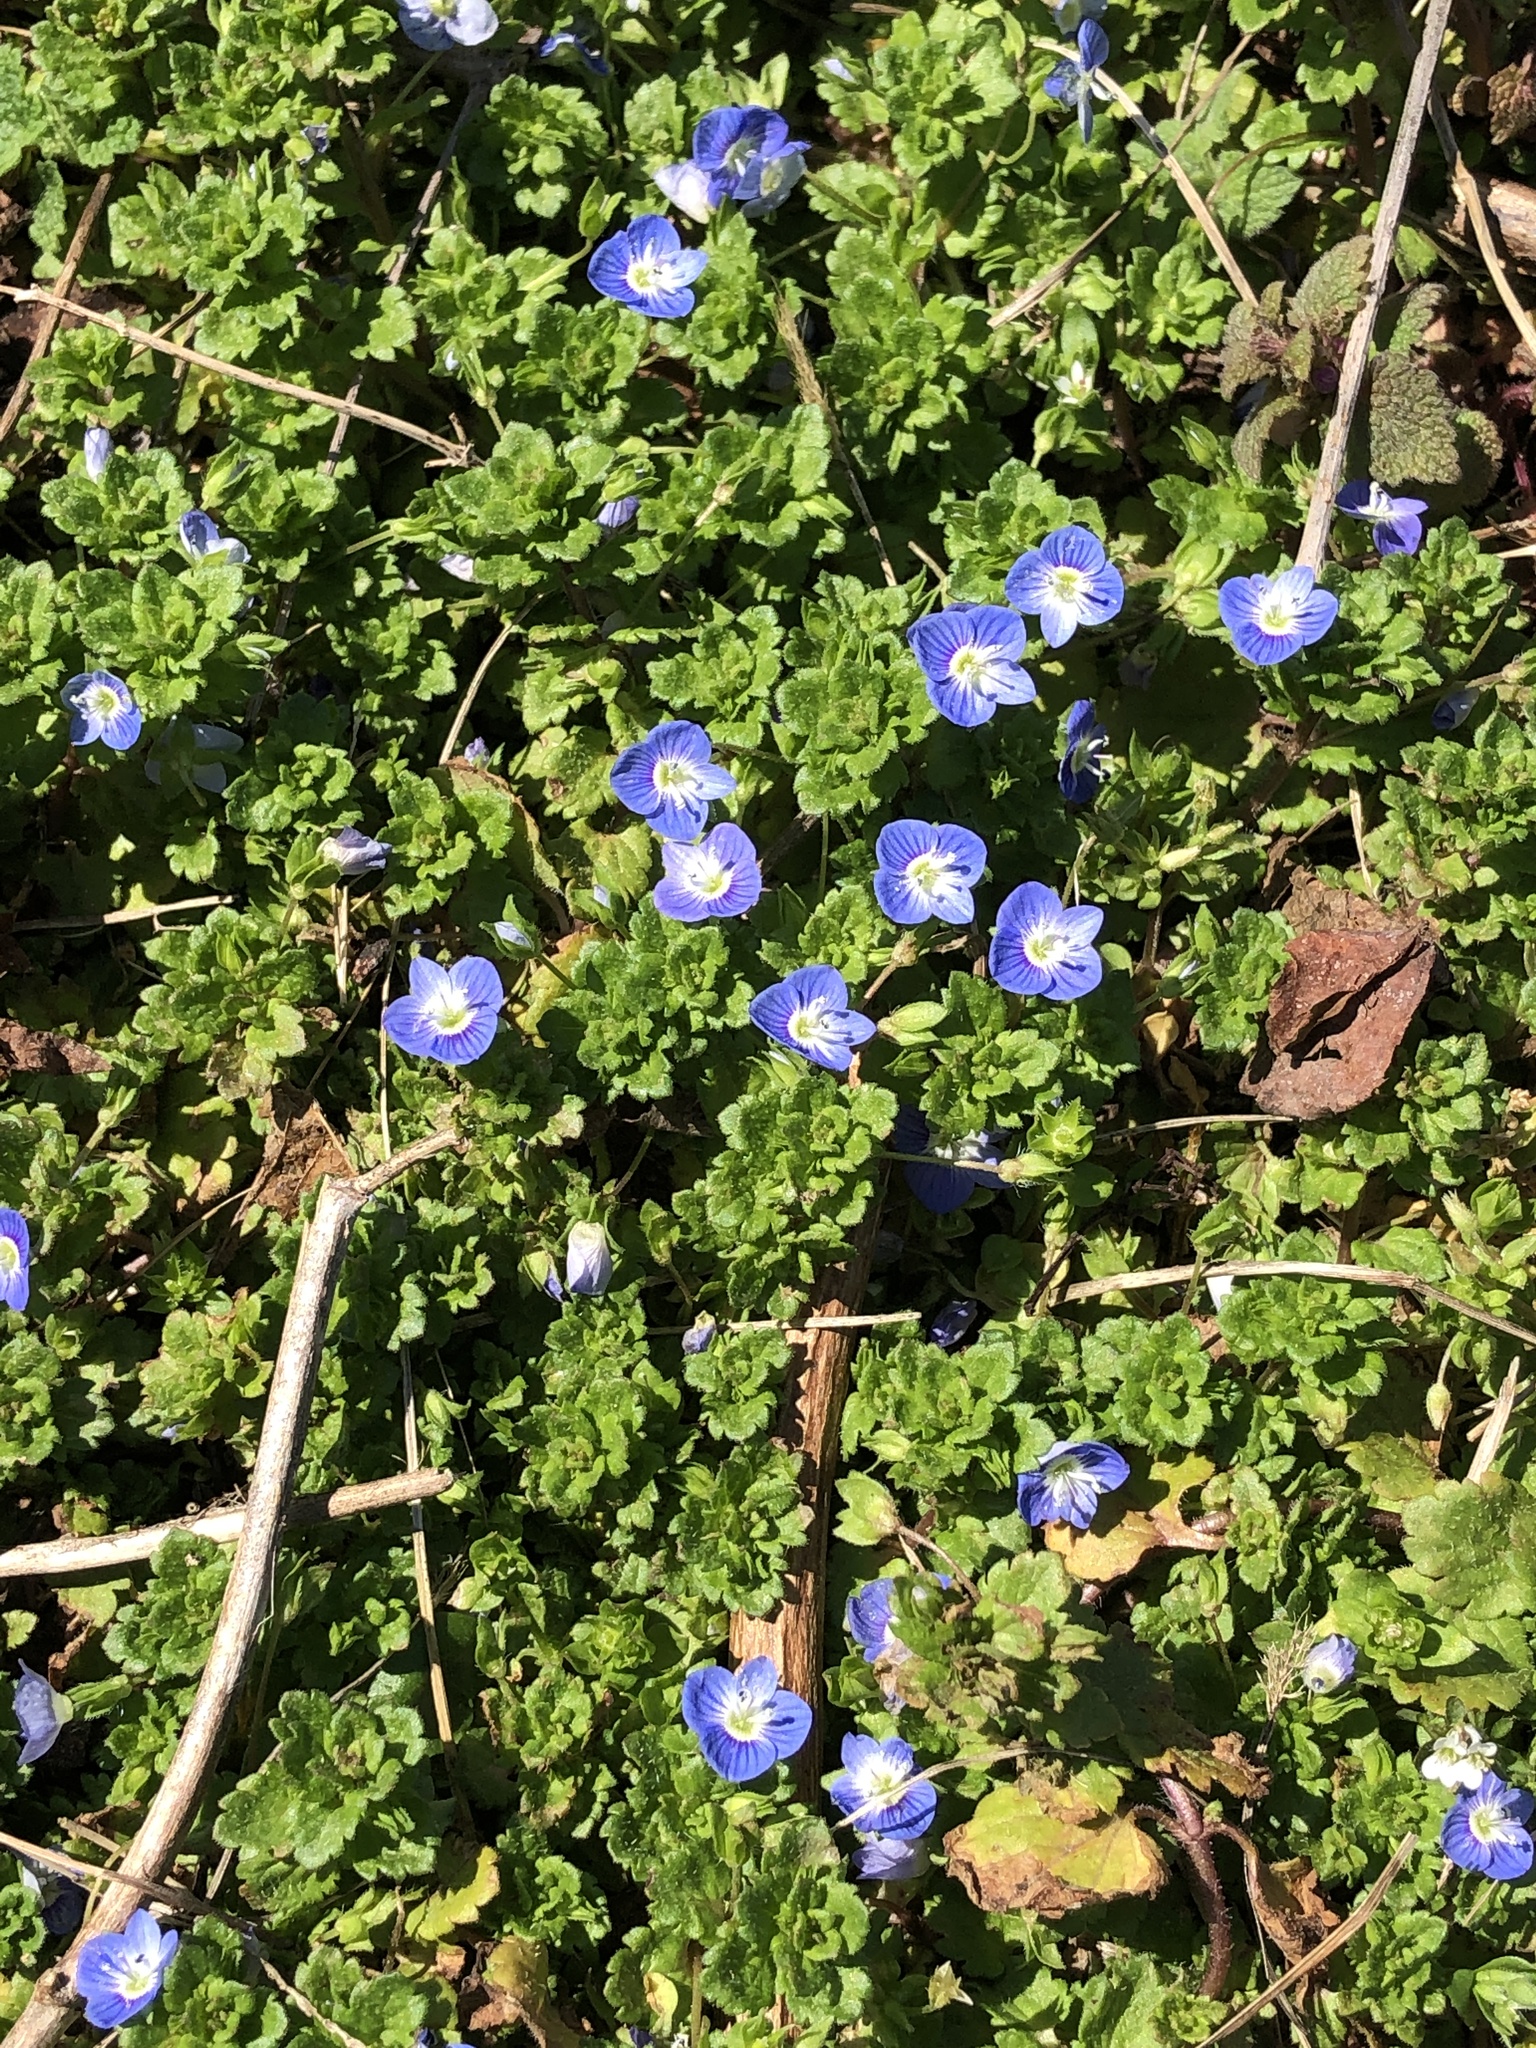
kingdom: Plantae
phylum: Tracheophyta
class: Magnoliopsida
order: Lamiales
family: Plantaginaceae
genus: Veronica
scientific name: Veronica persica
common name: Common field-speedwell
